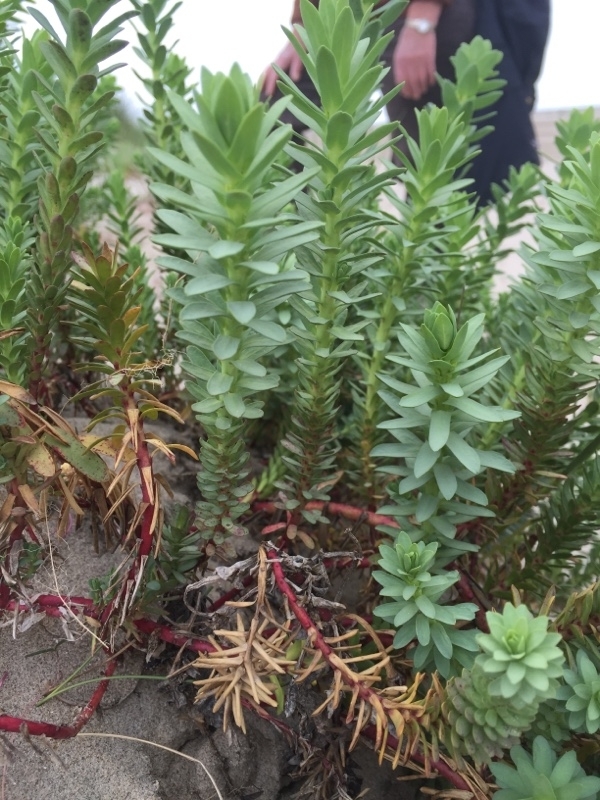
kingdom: Plantae
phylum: Tracheophyta
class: Magnoliopsida
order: Malpighiales
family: Euphorbiaceae
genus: Euphorbia
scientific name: Euphorbia paralias
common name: Sea spurge
